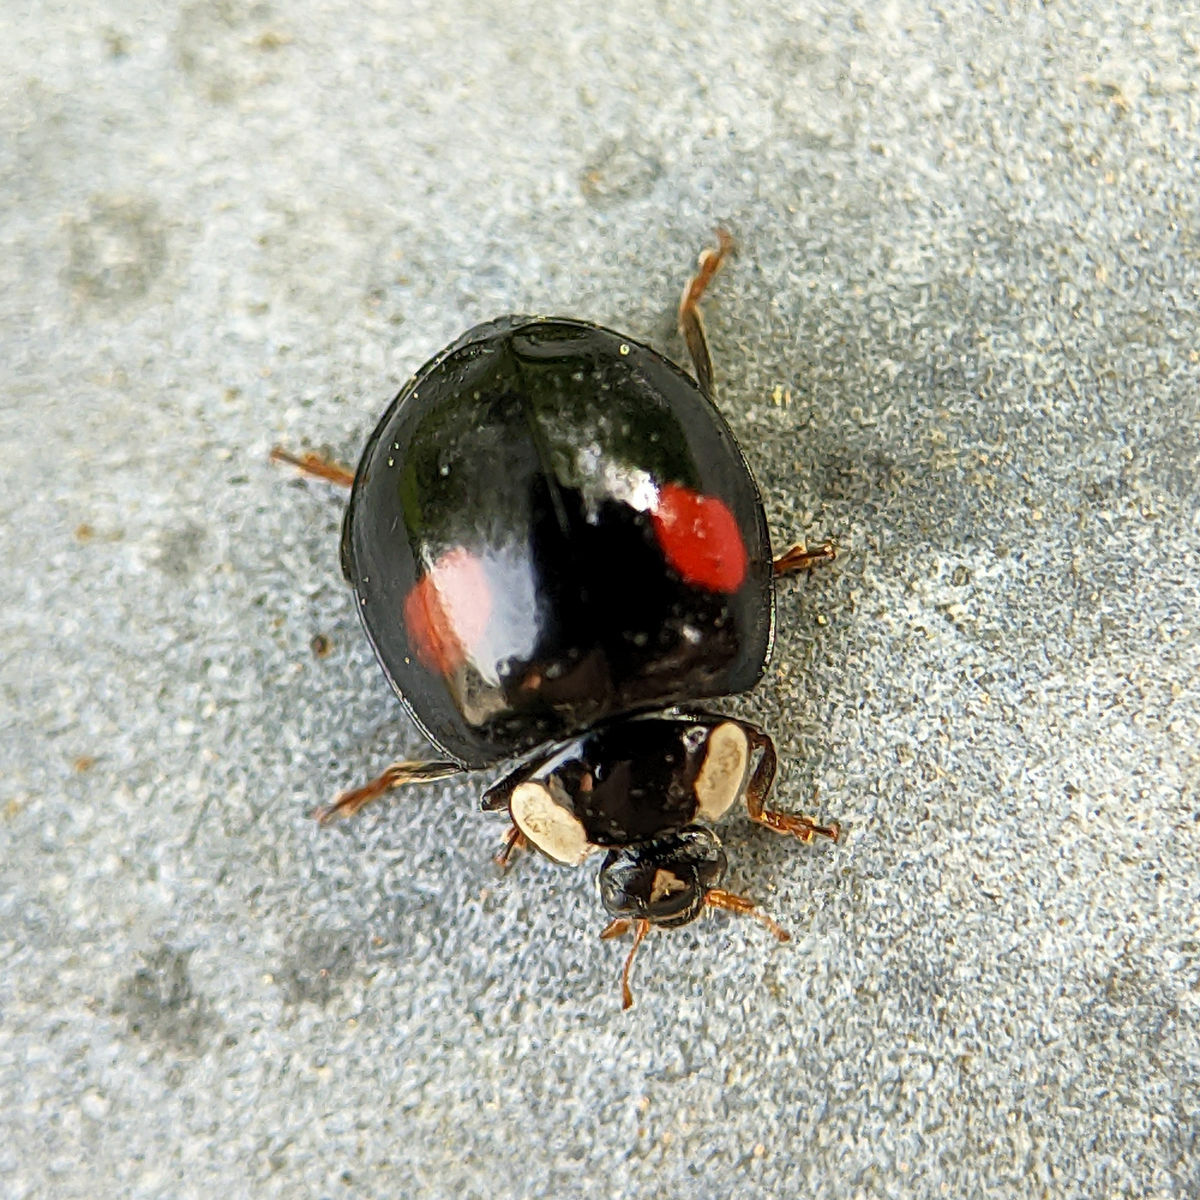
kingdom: Animalia
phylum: Arthropoda
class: Insecta
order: Coleoptera
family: Coccinellidae
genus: Harmonia
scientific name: Harmonia axyridis
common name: Harlequin ladybird
